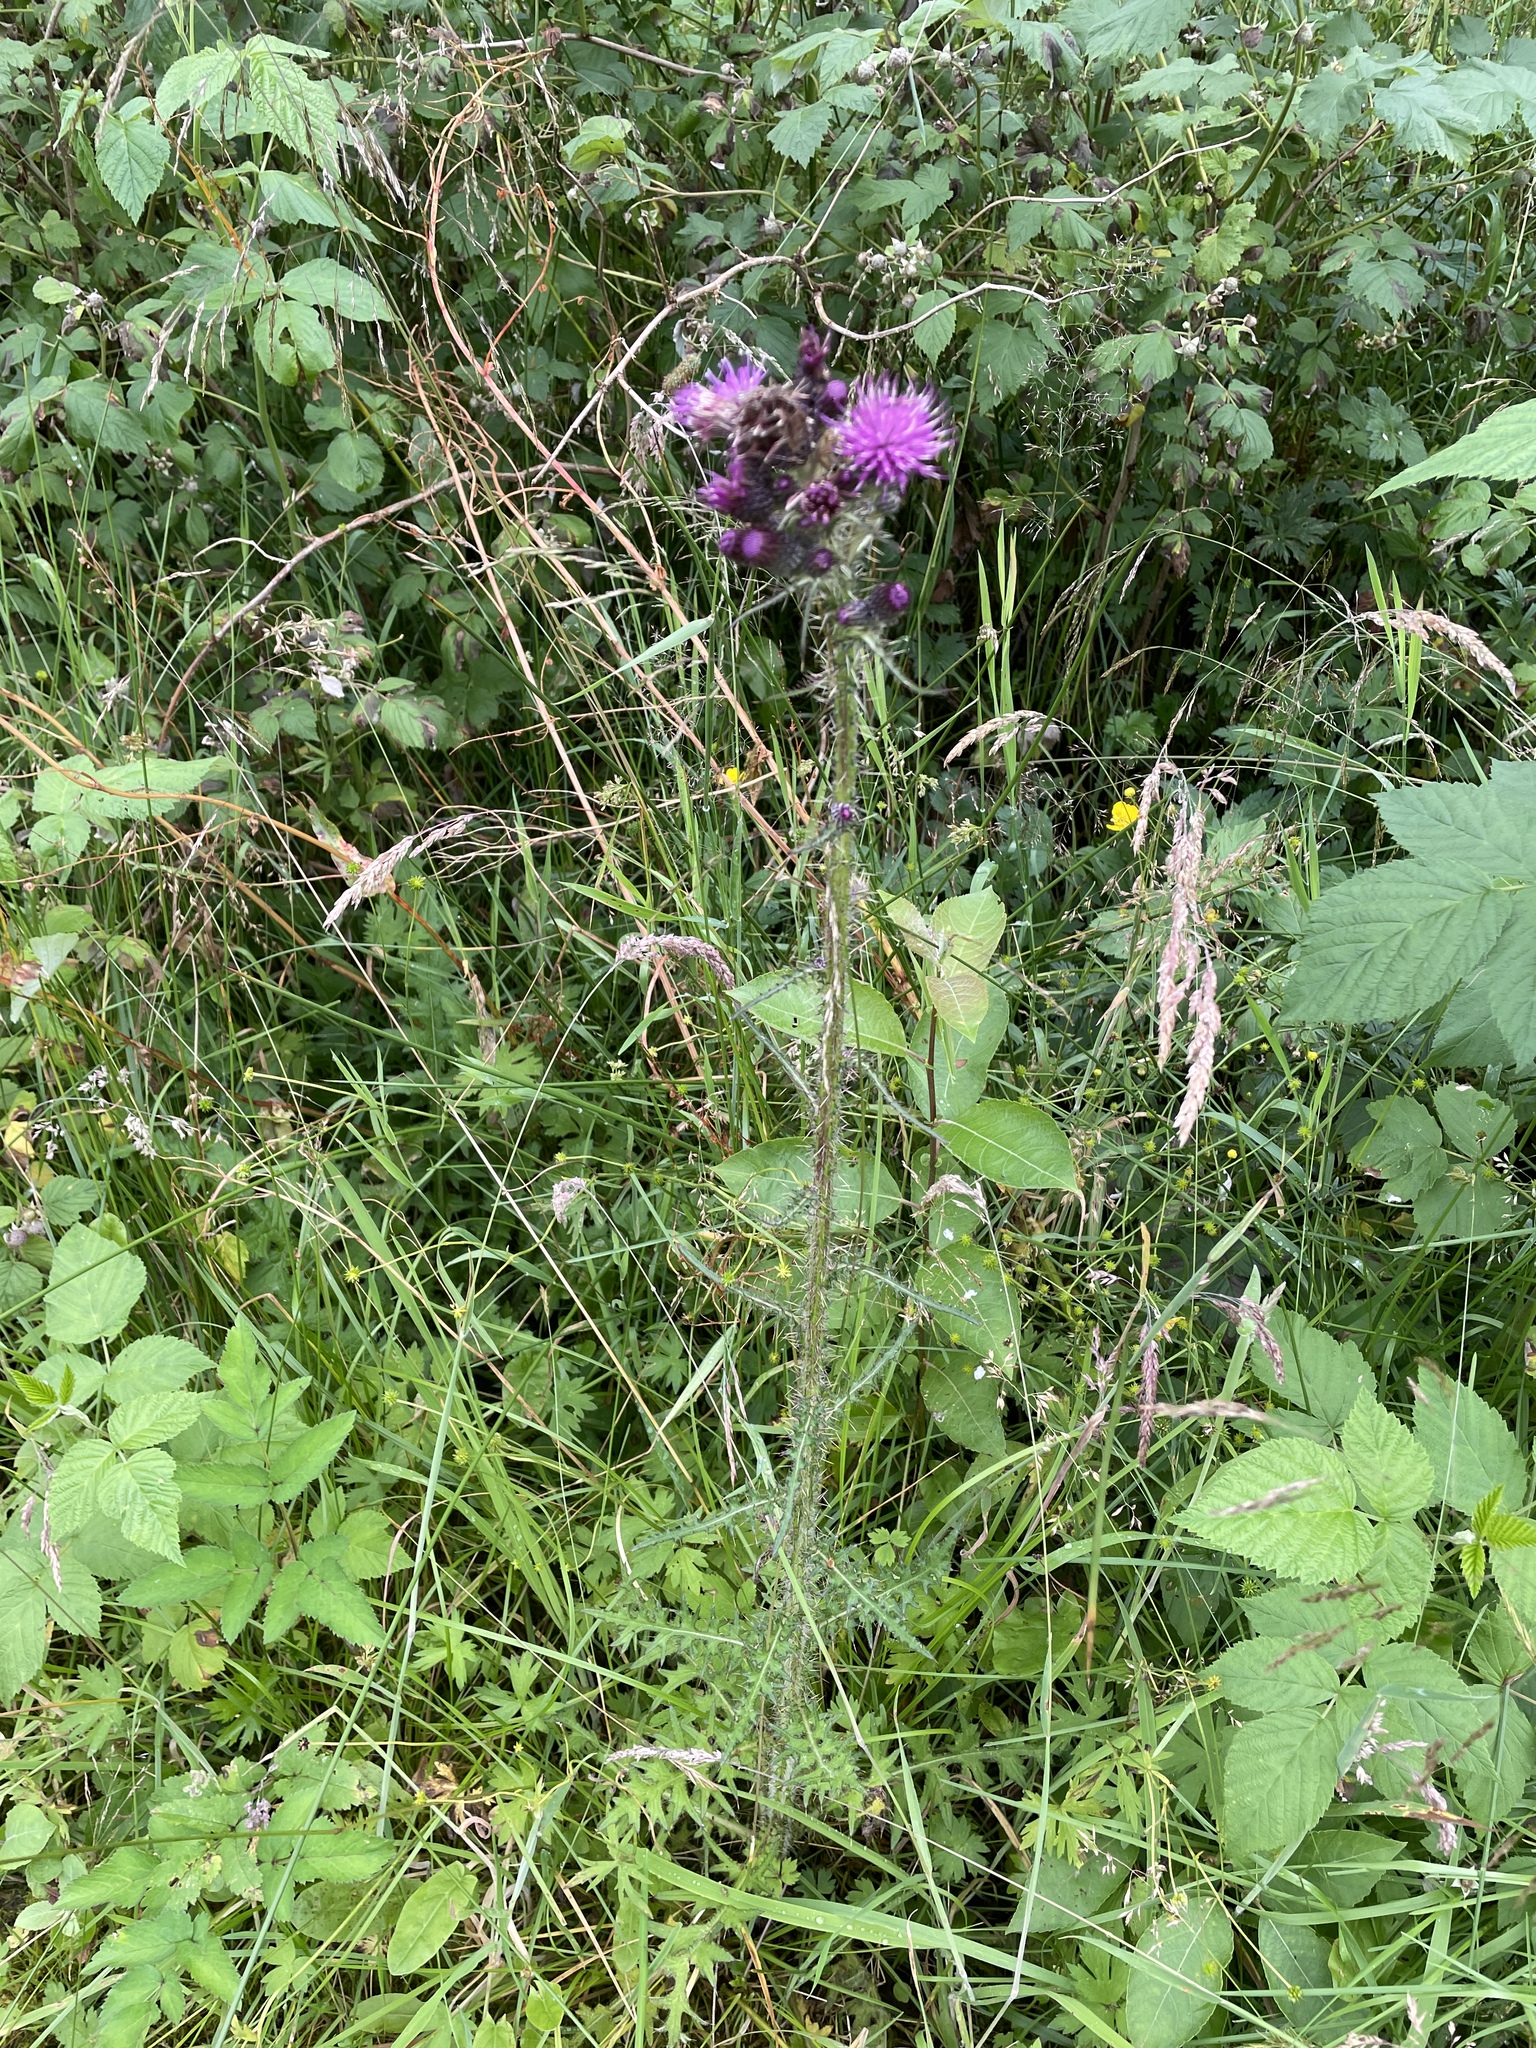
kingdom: Plantae
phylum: Tracheophyta
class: Magnoliopsida
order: Asterales
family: Asteraceae
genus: Cirsium
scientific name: Cirsium palustre
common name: Marsh thistle
